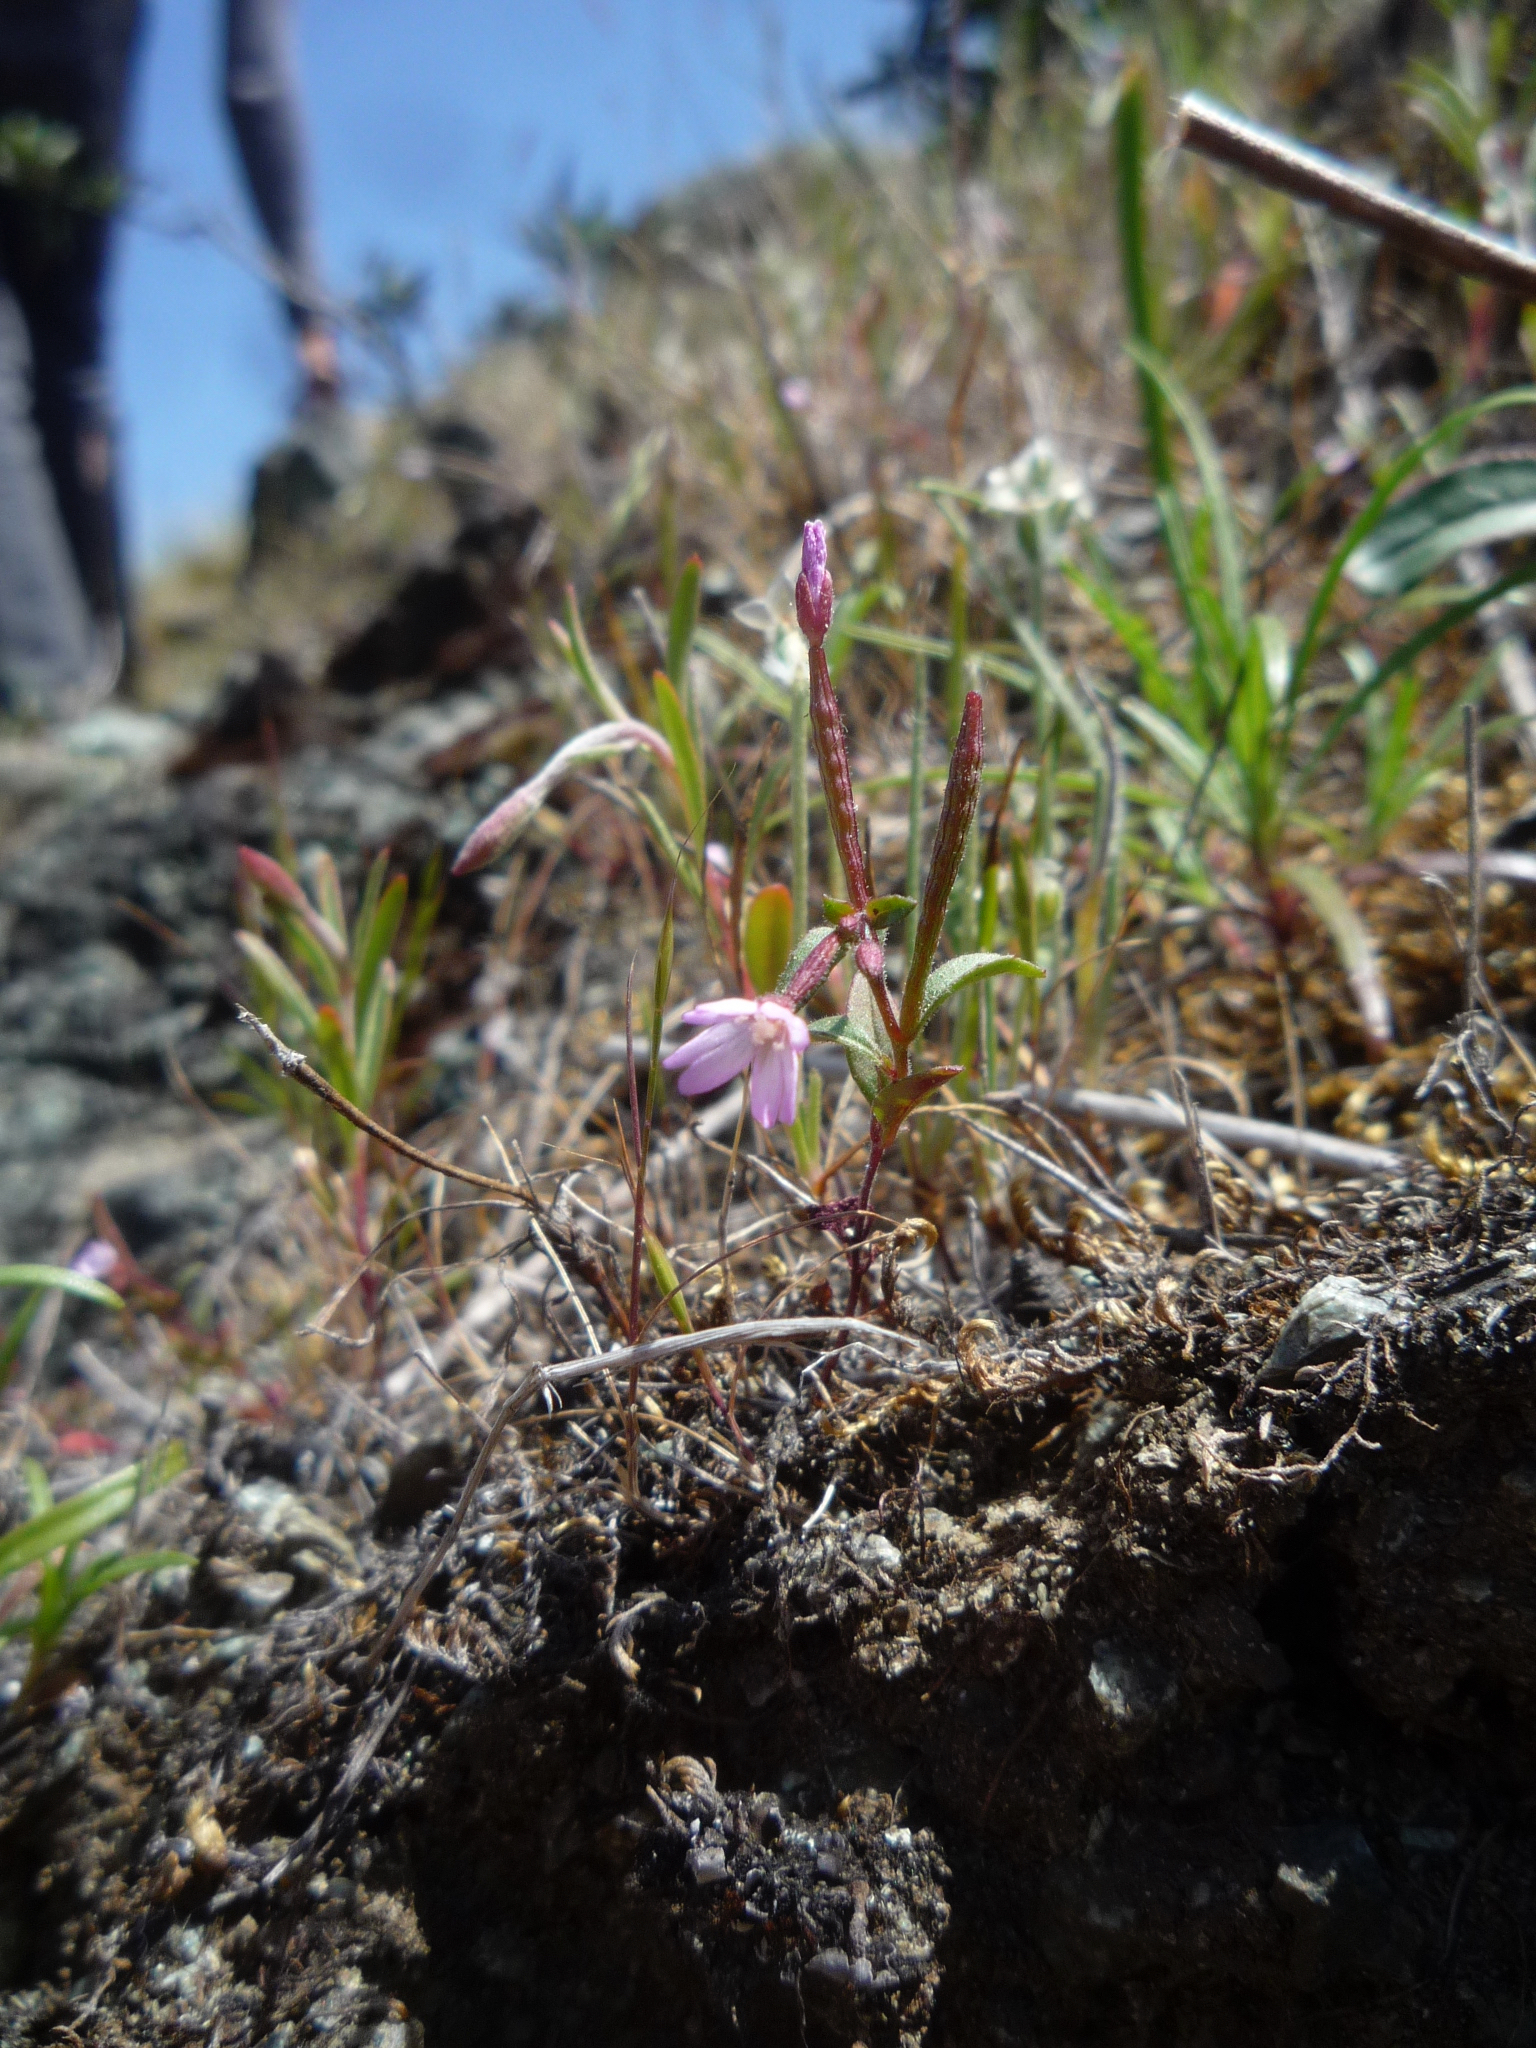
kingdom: Plantae
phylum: Tracheophyta
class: Magnoliopsida
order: Myrtales
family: Onagraceae
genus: Epilobium
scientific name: Epilobium minutum
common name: Chaparral willowherb
